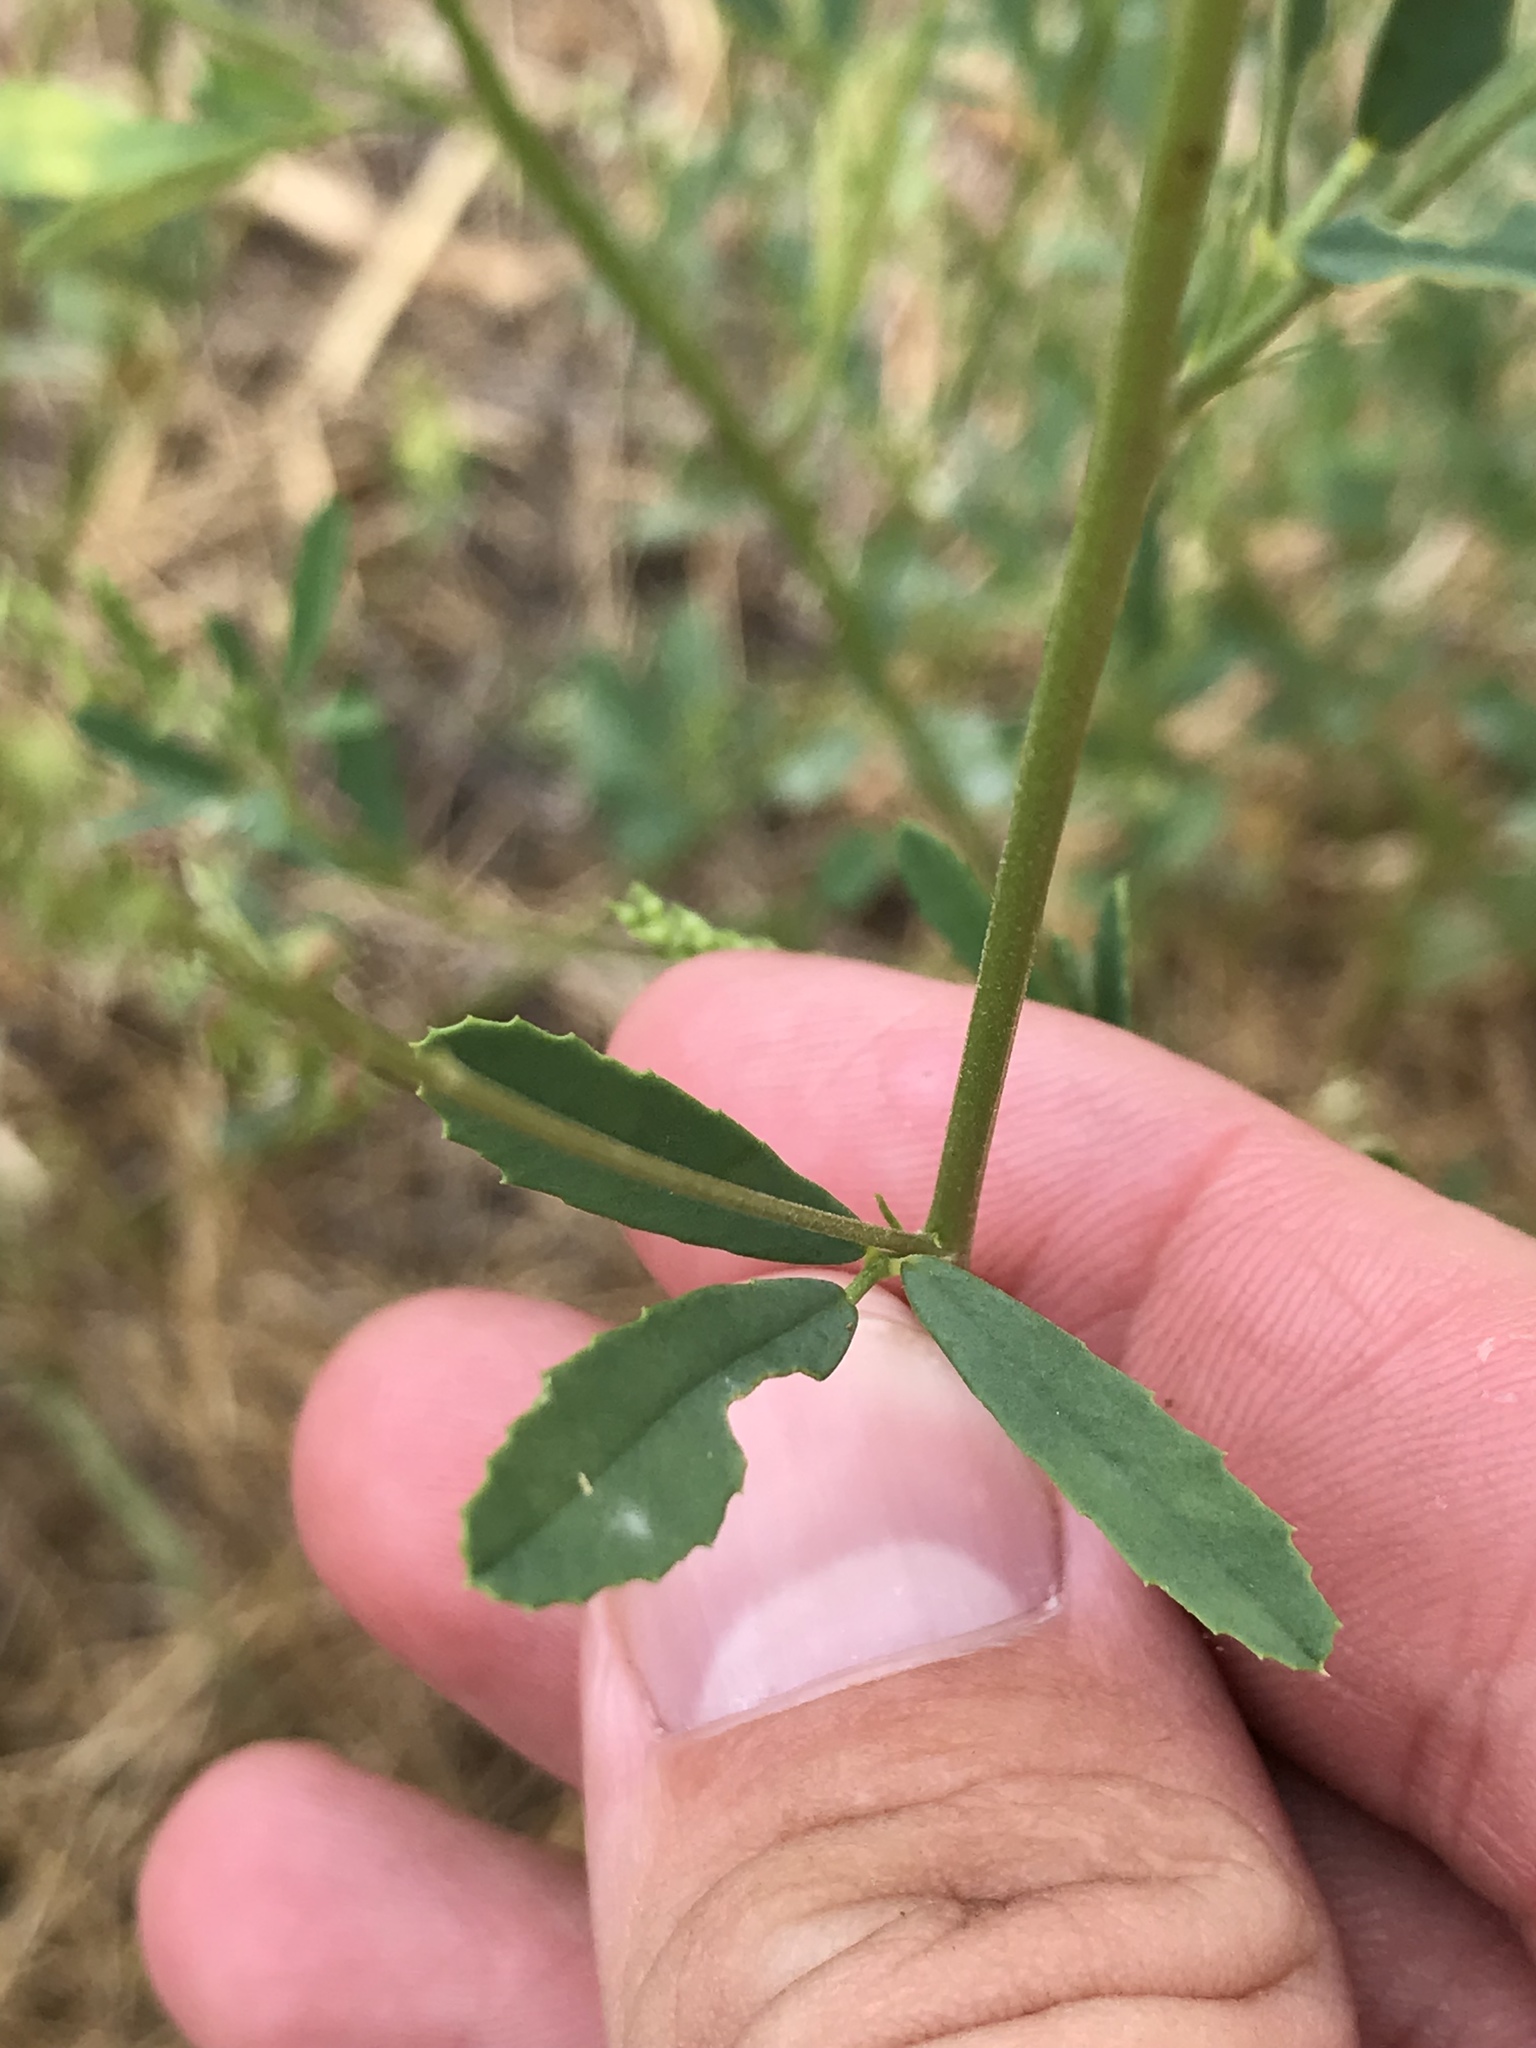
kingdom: Plantae
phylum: Tracheophyta
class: Magnoliopsida
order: Fabales
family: Fabaceae
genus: Melilotus
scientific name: Melilotus albus
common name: White melilot
